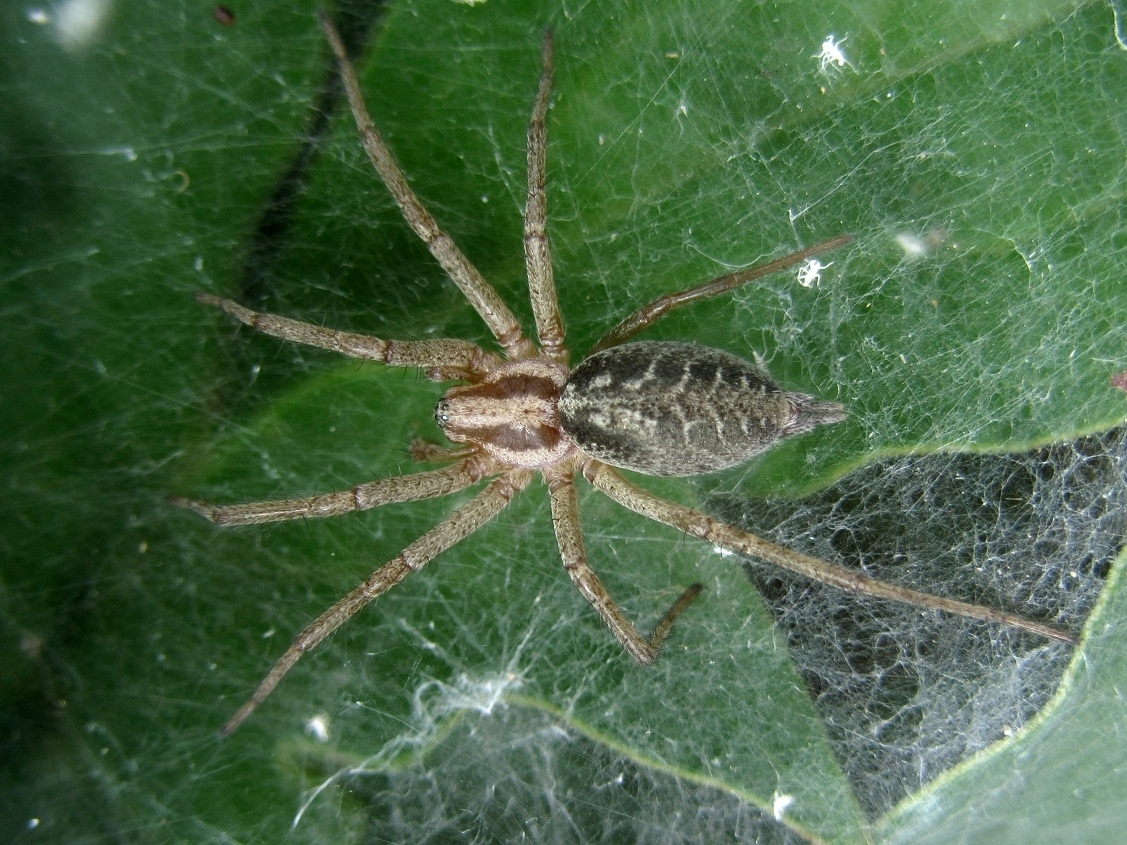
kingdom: Animalia
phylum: Arthropoda
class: Arachnida
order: Araneae
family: Agelenidae
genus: Agelena
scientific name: Agelena labyrinthica
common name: Labyrinth spider
